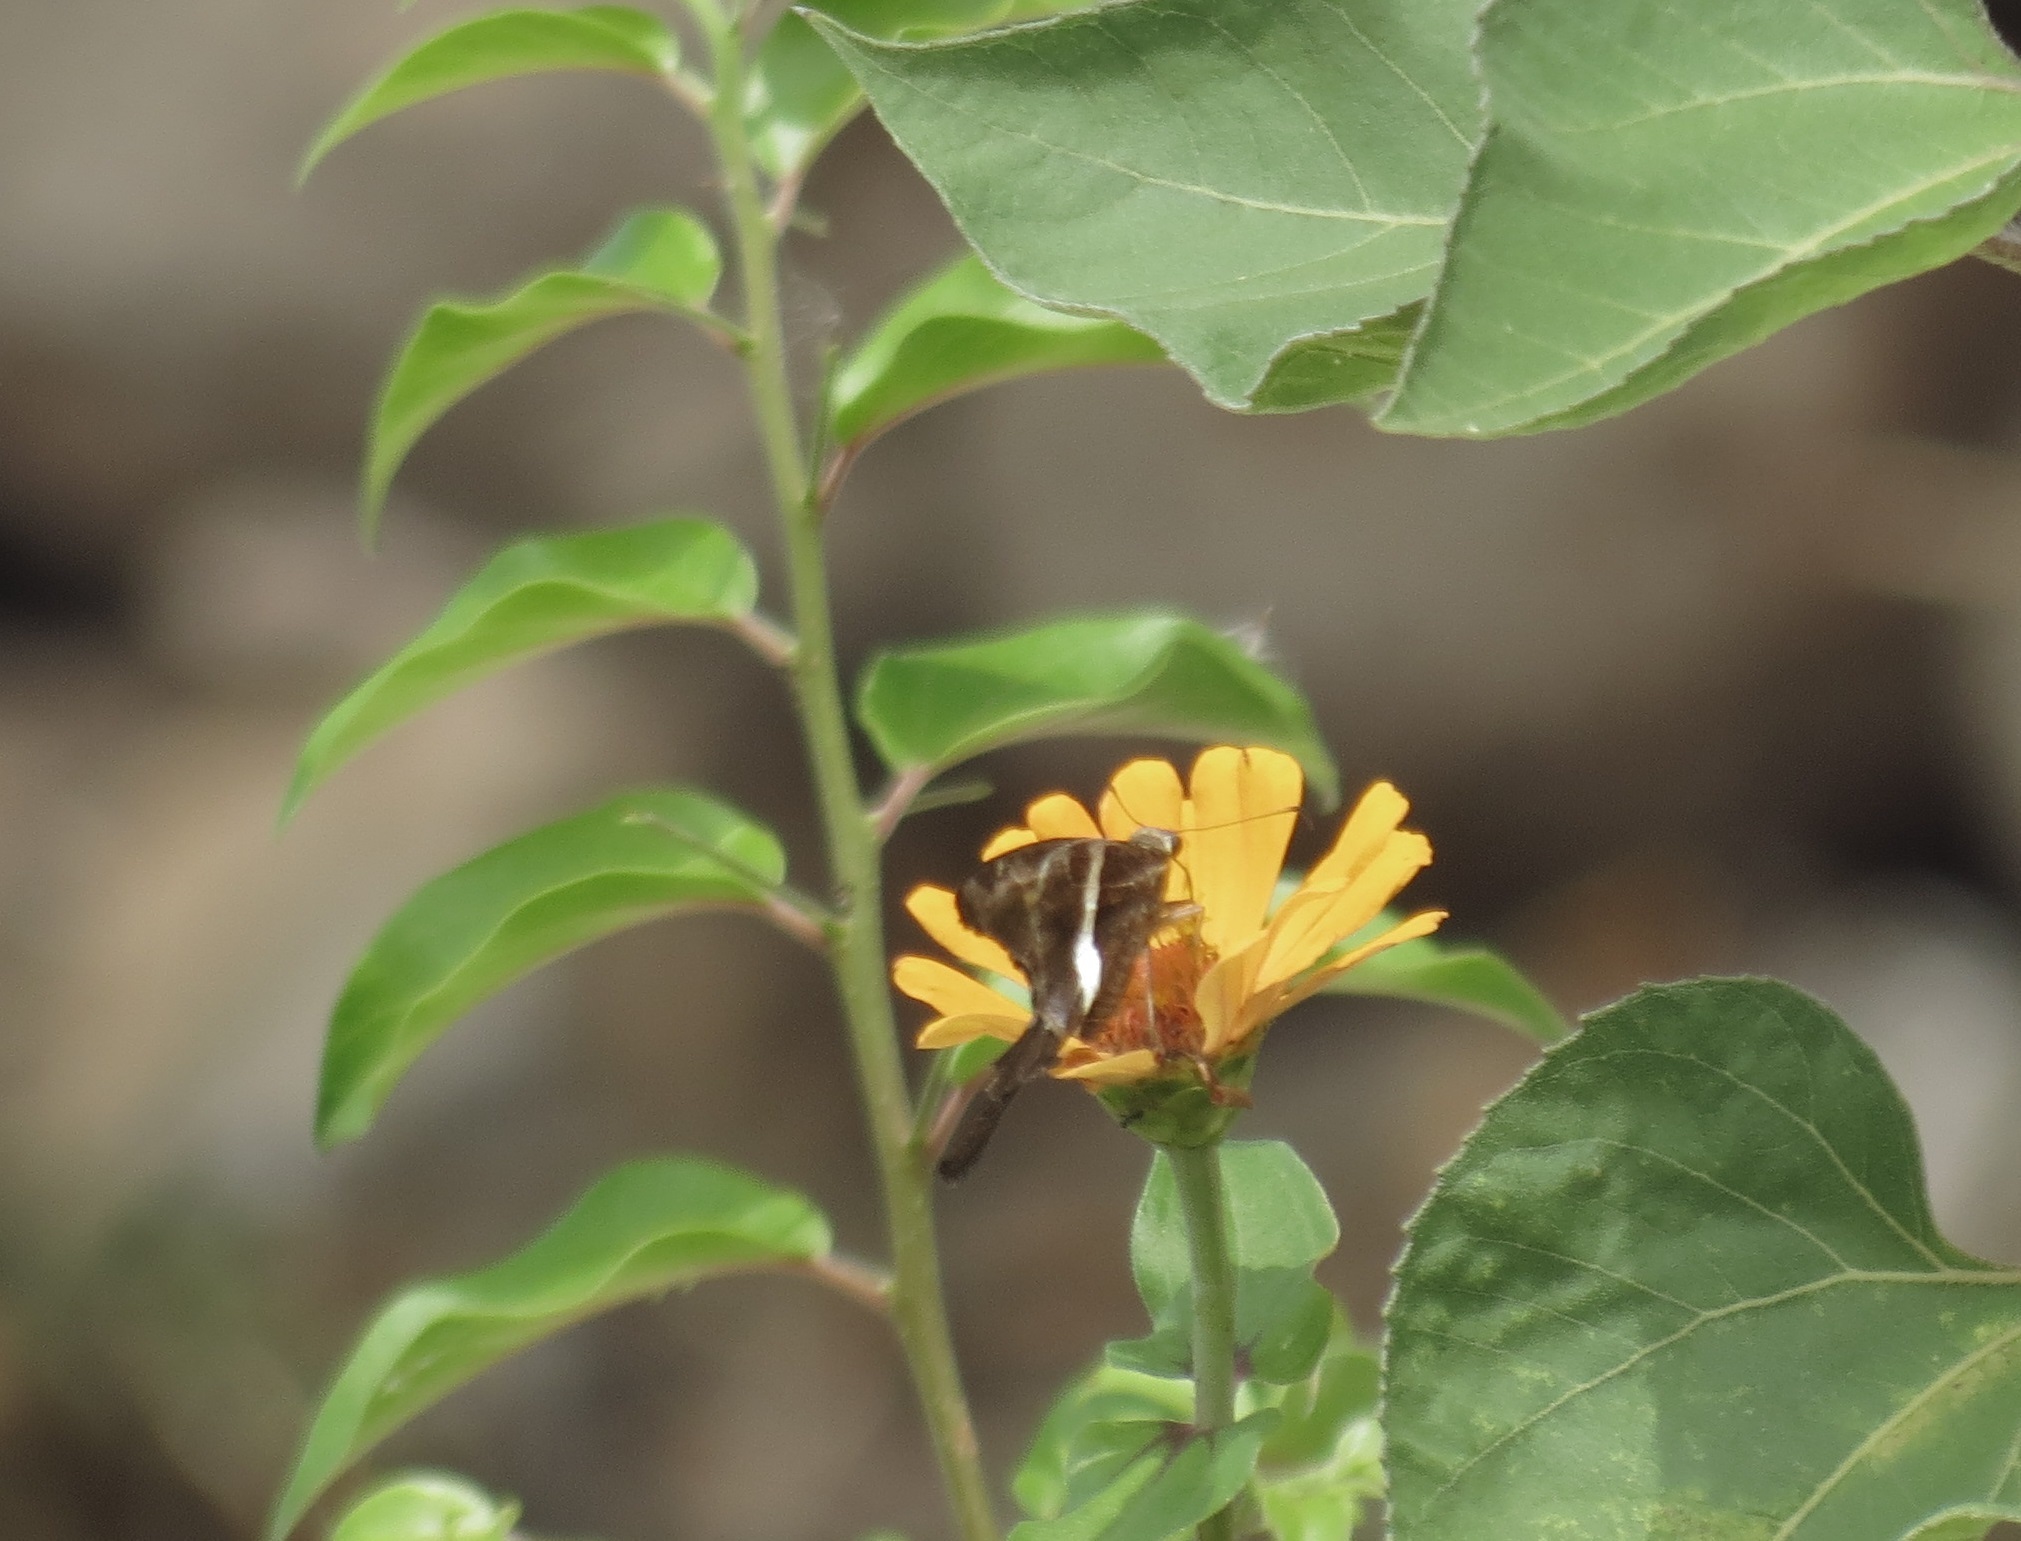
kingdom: Animalia
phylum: Arthropoda
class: Insecta
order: Lepidoptera
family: Hesperiidae
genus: Chioides
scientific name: Chioides catillus
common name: Silverbanded skipper
